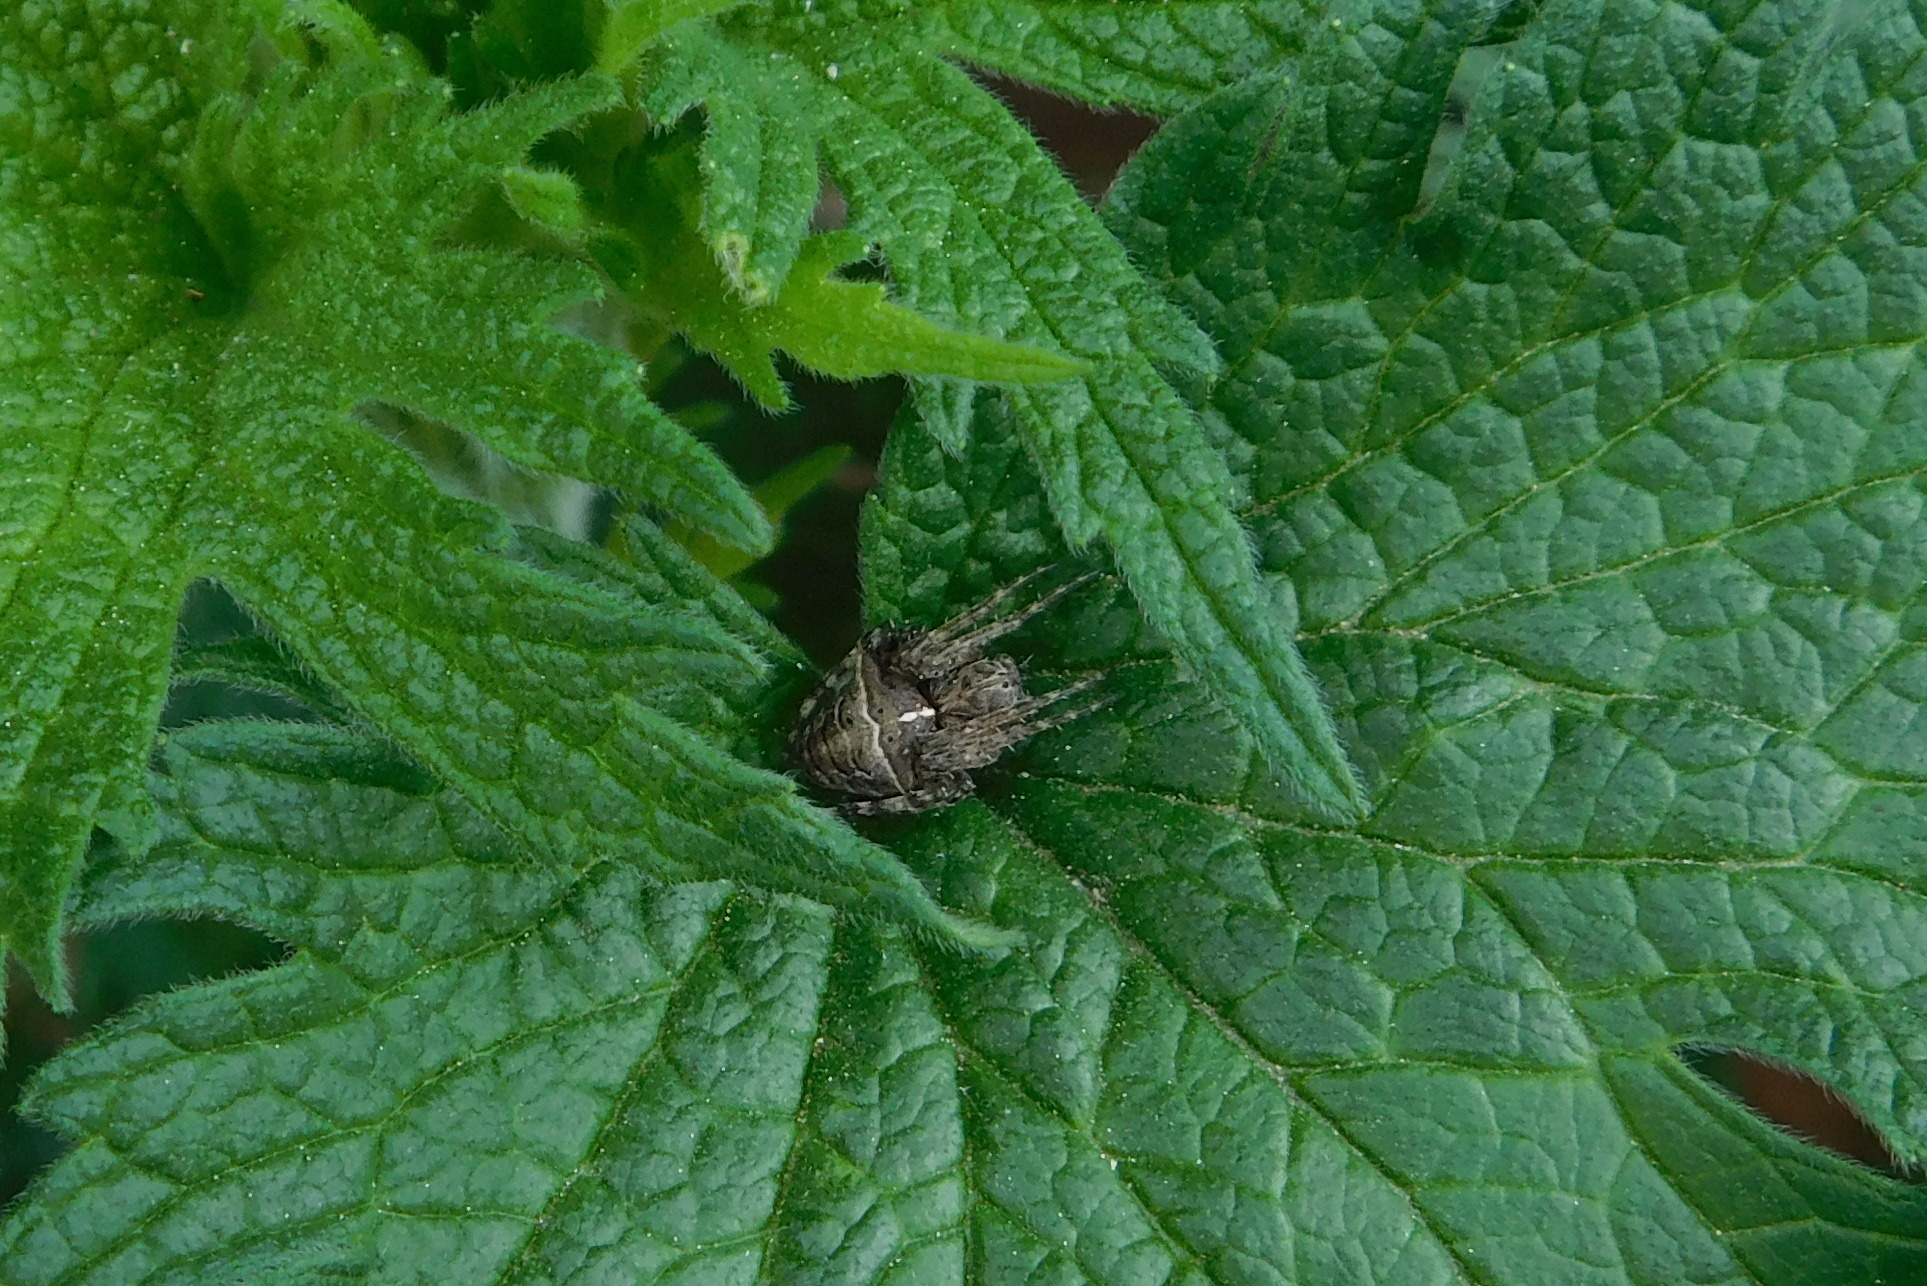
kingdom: Animalia
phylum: Arthropoda
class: Arachnida
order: Araneae
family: Araneidae
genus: Gibbaranea
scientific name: Gibbaranea bituberculata
